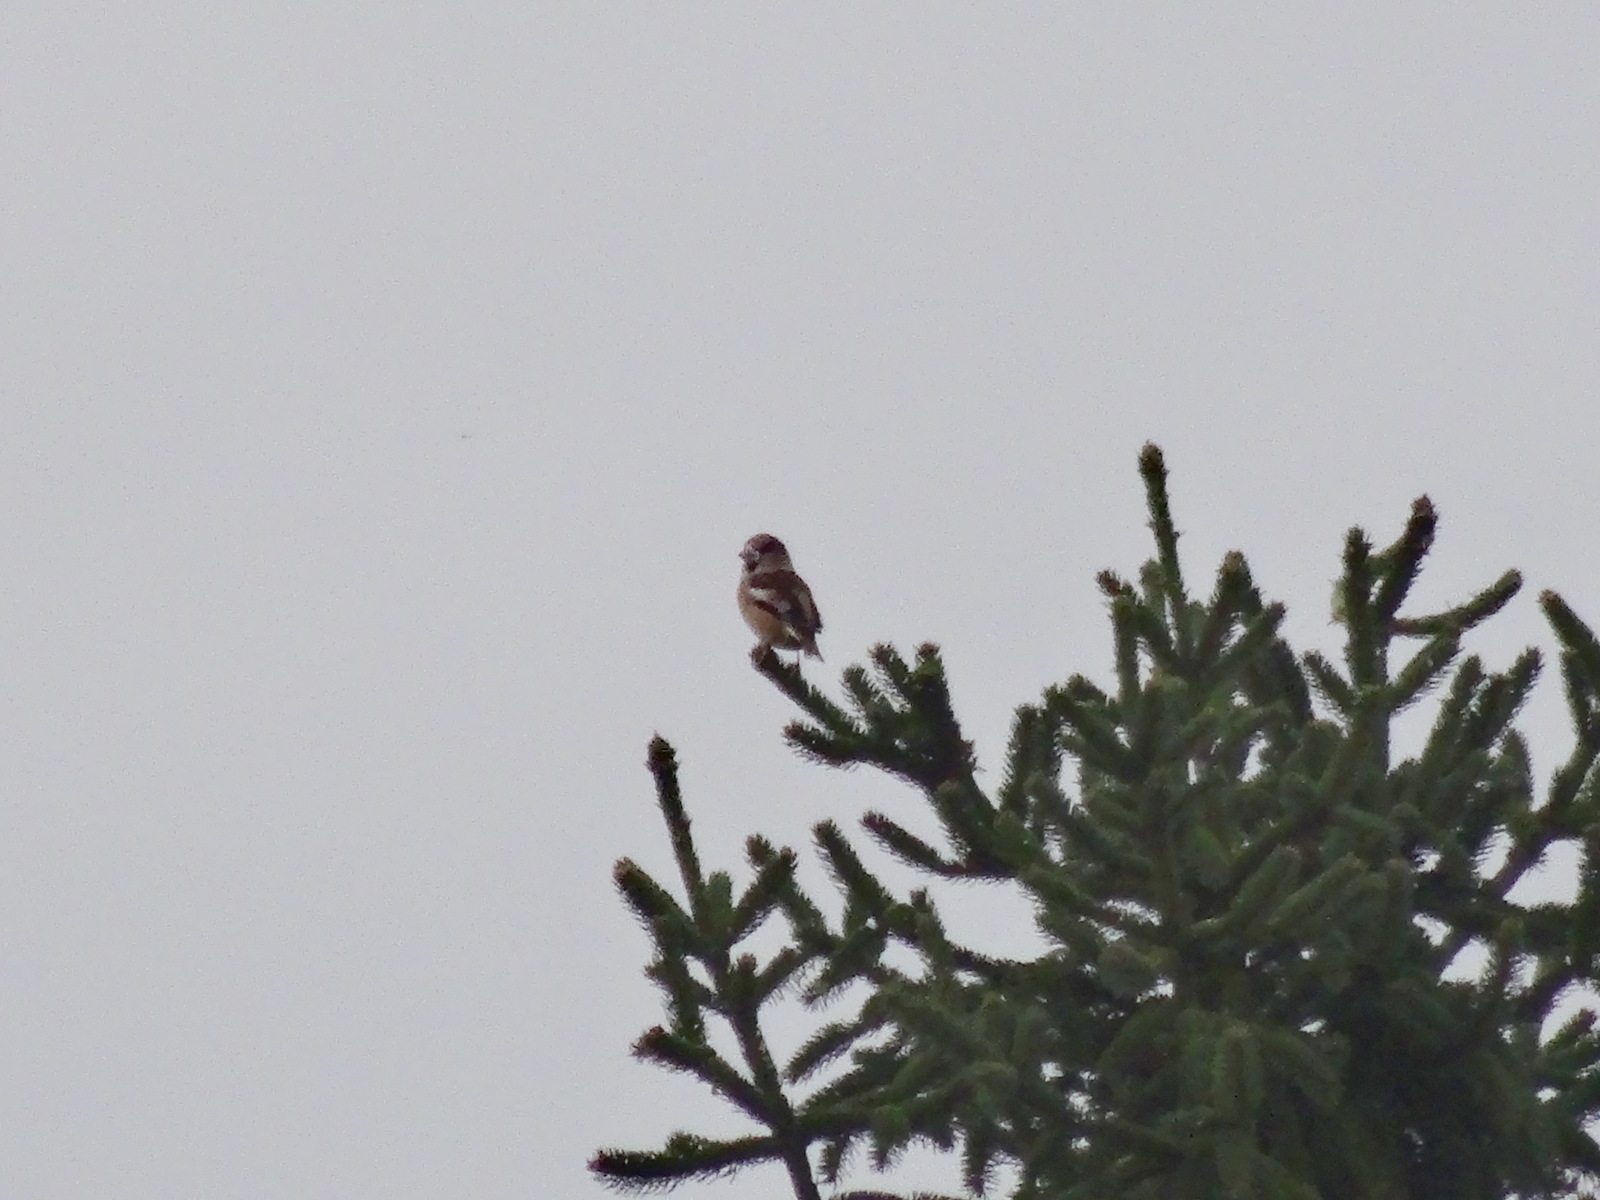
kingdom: Animalia
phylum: Chordata
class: Aves
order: Passeriformes
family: Fringillidae
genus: Coccothraustes
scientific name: Coccothraustes coccothraustes
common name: Hawfinch
